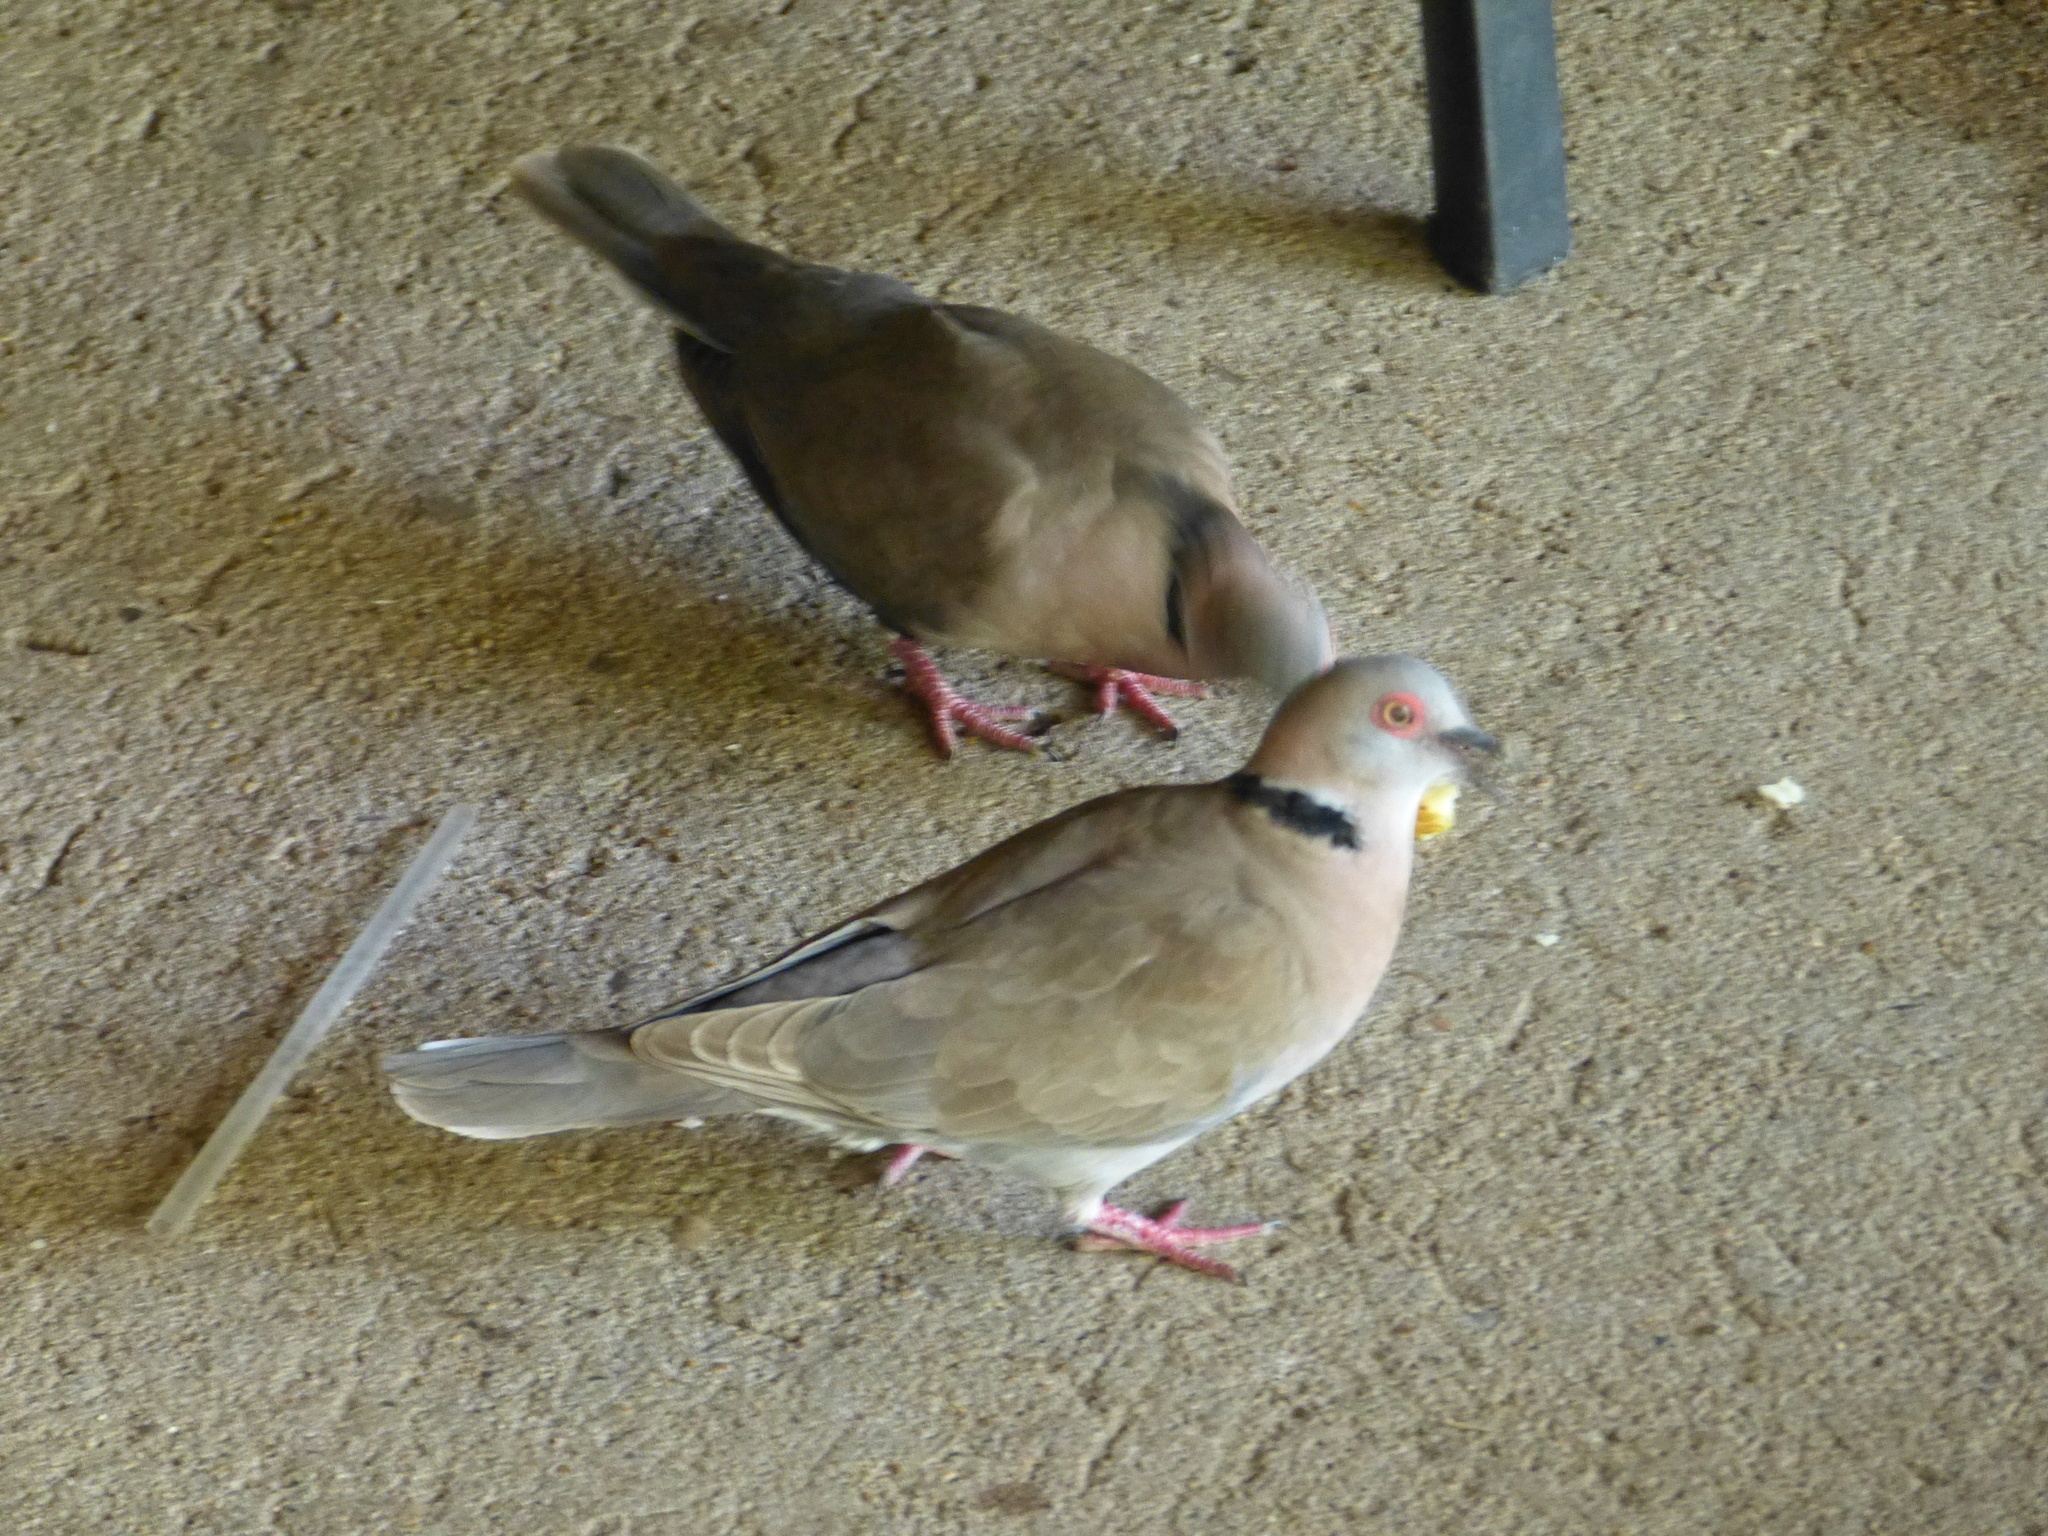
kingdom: Animalia
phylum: Chordata
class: Aves
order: Columbiformes
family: Columbidae
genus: Streptopelia
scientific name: Streptopelia decipiens
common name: Mourning collared dove
